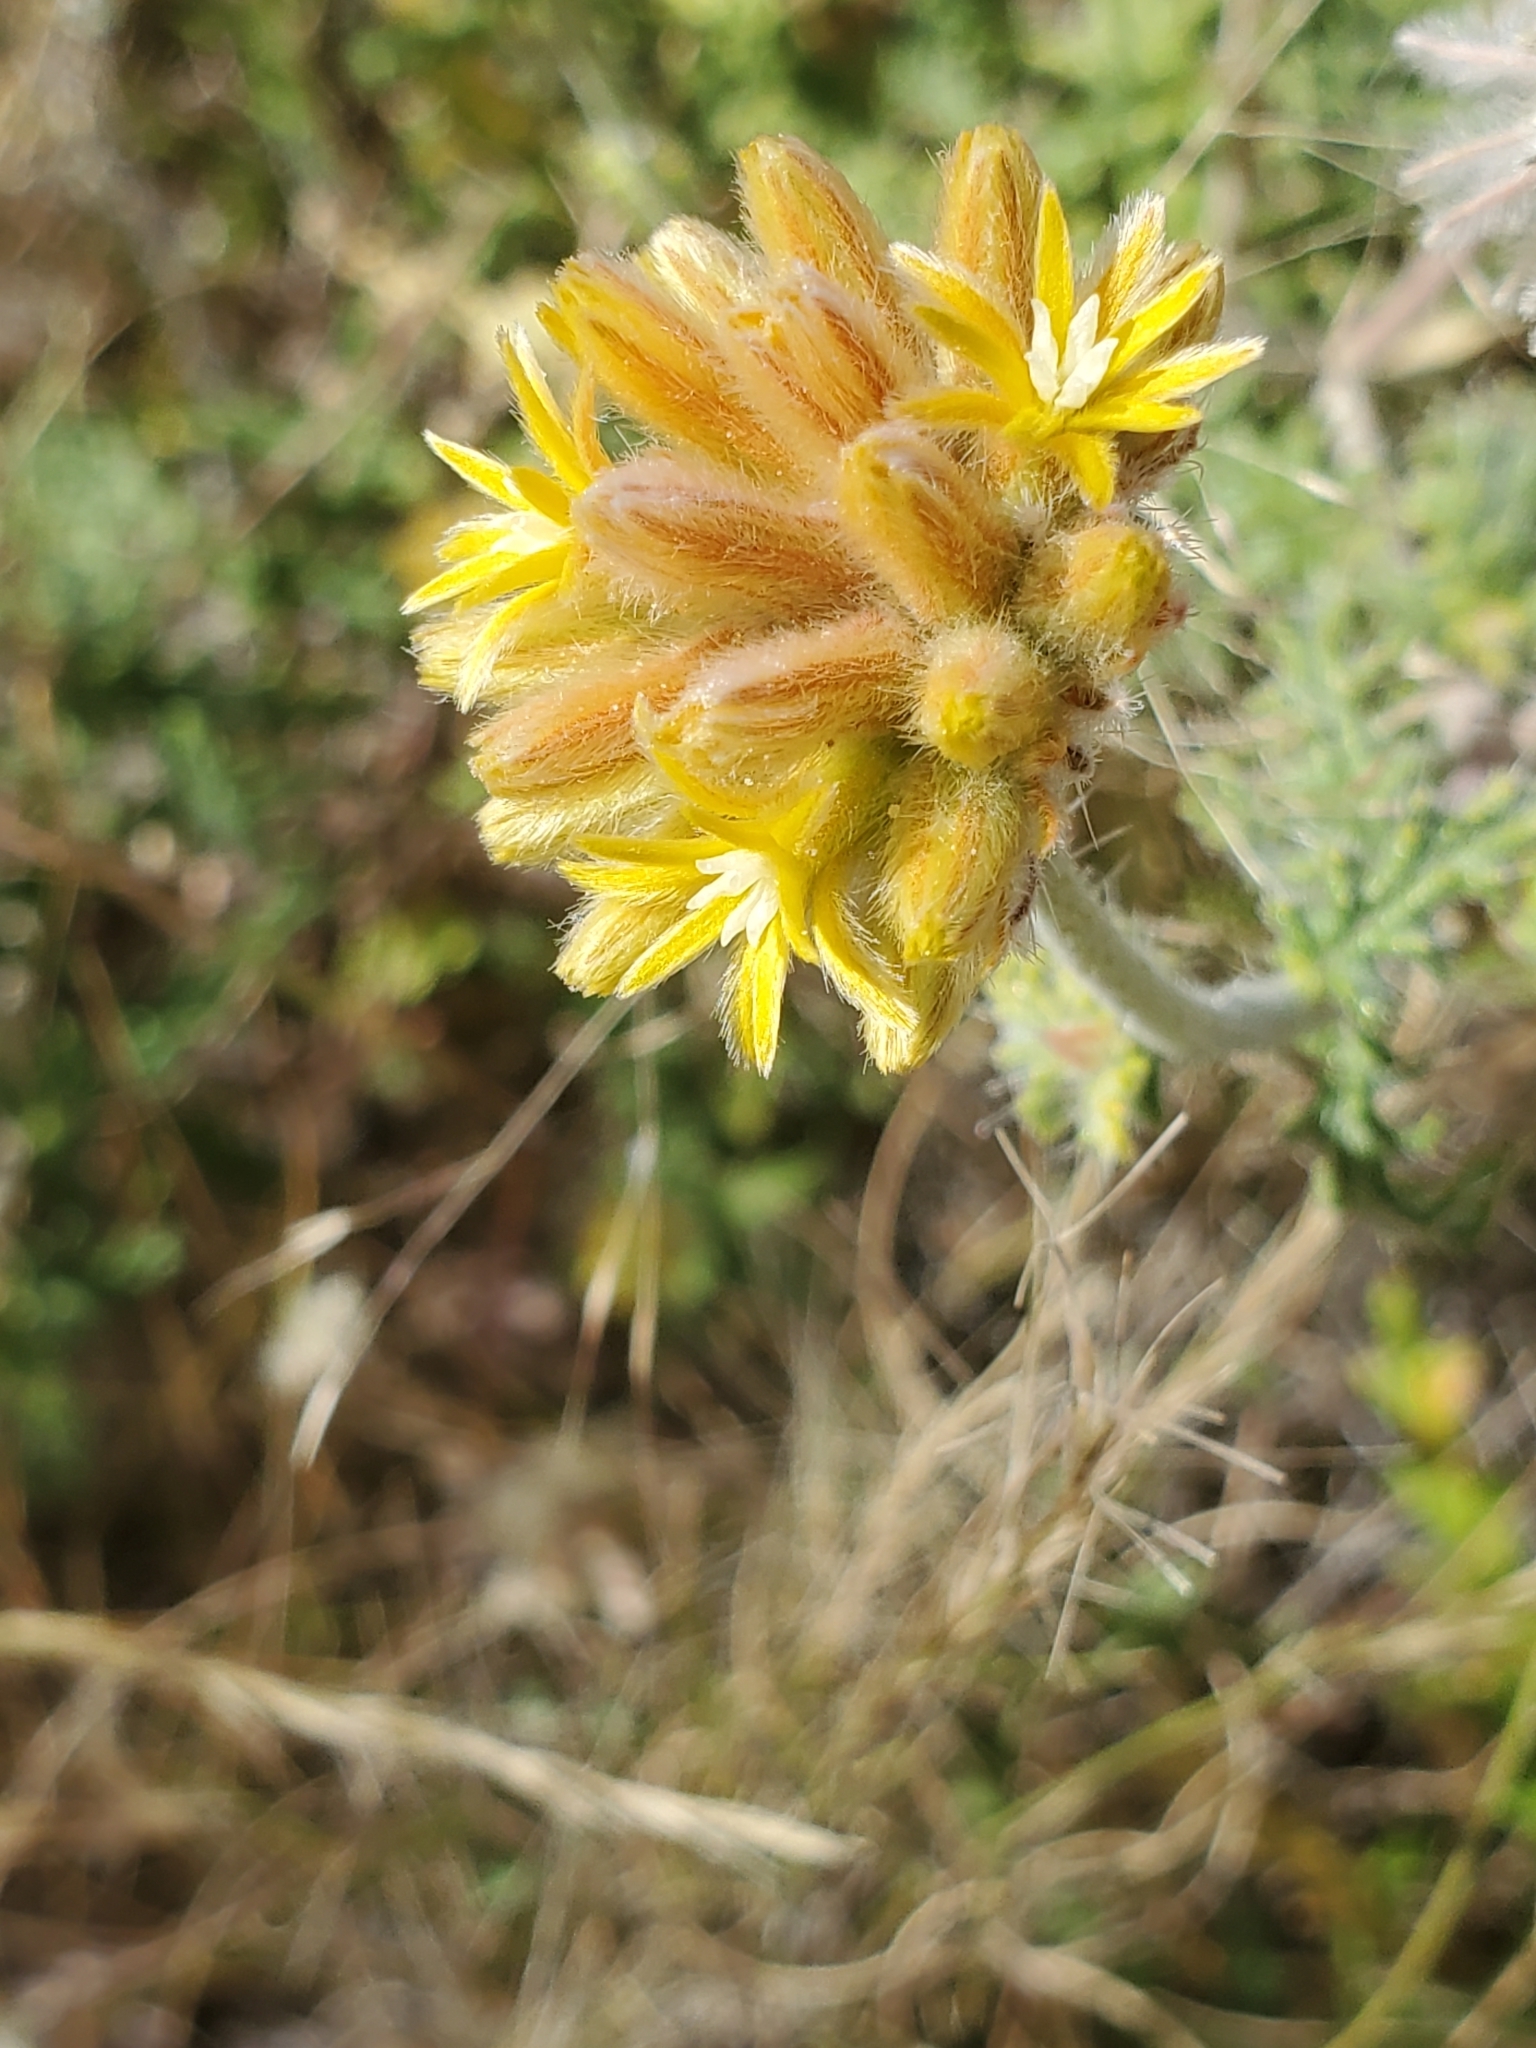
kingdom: Plantae
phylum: Tracheophyta
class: Magnoliopsida
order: Cornales
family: Loasaceae
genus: Cevallia
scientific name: Cevallia sinuata
